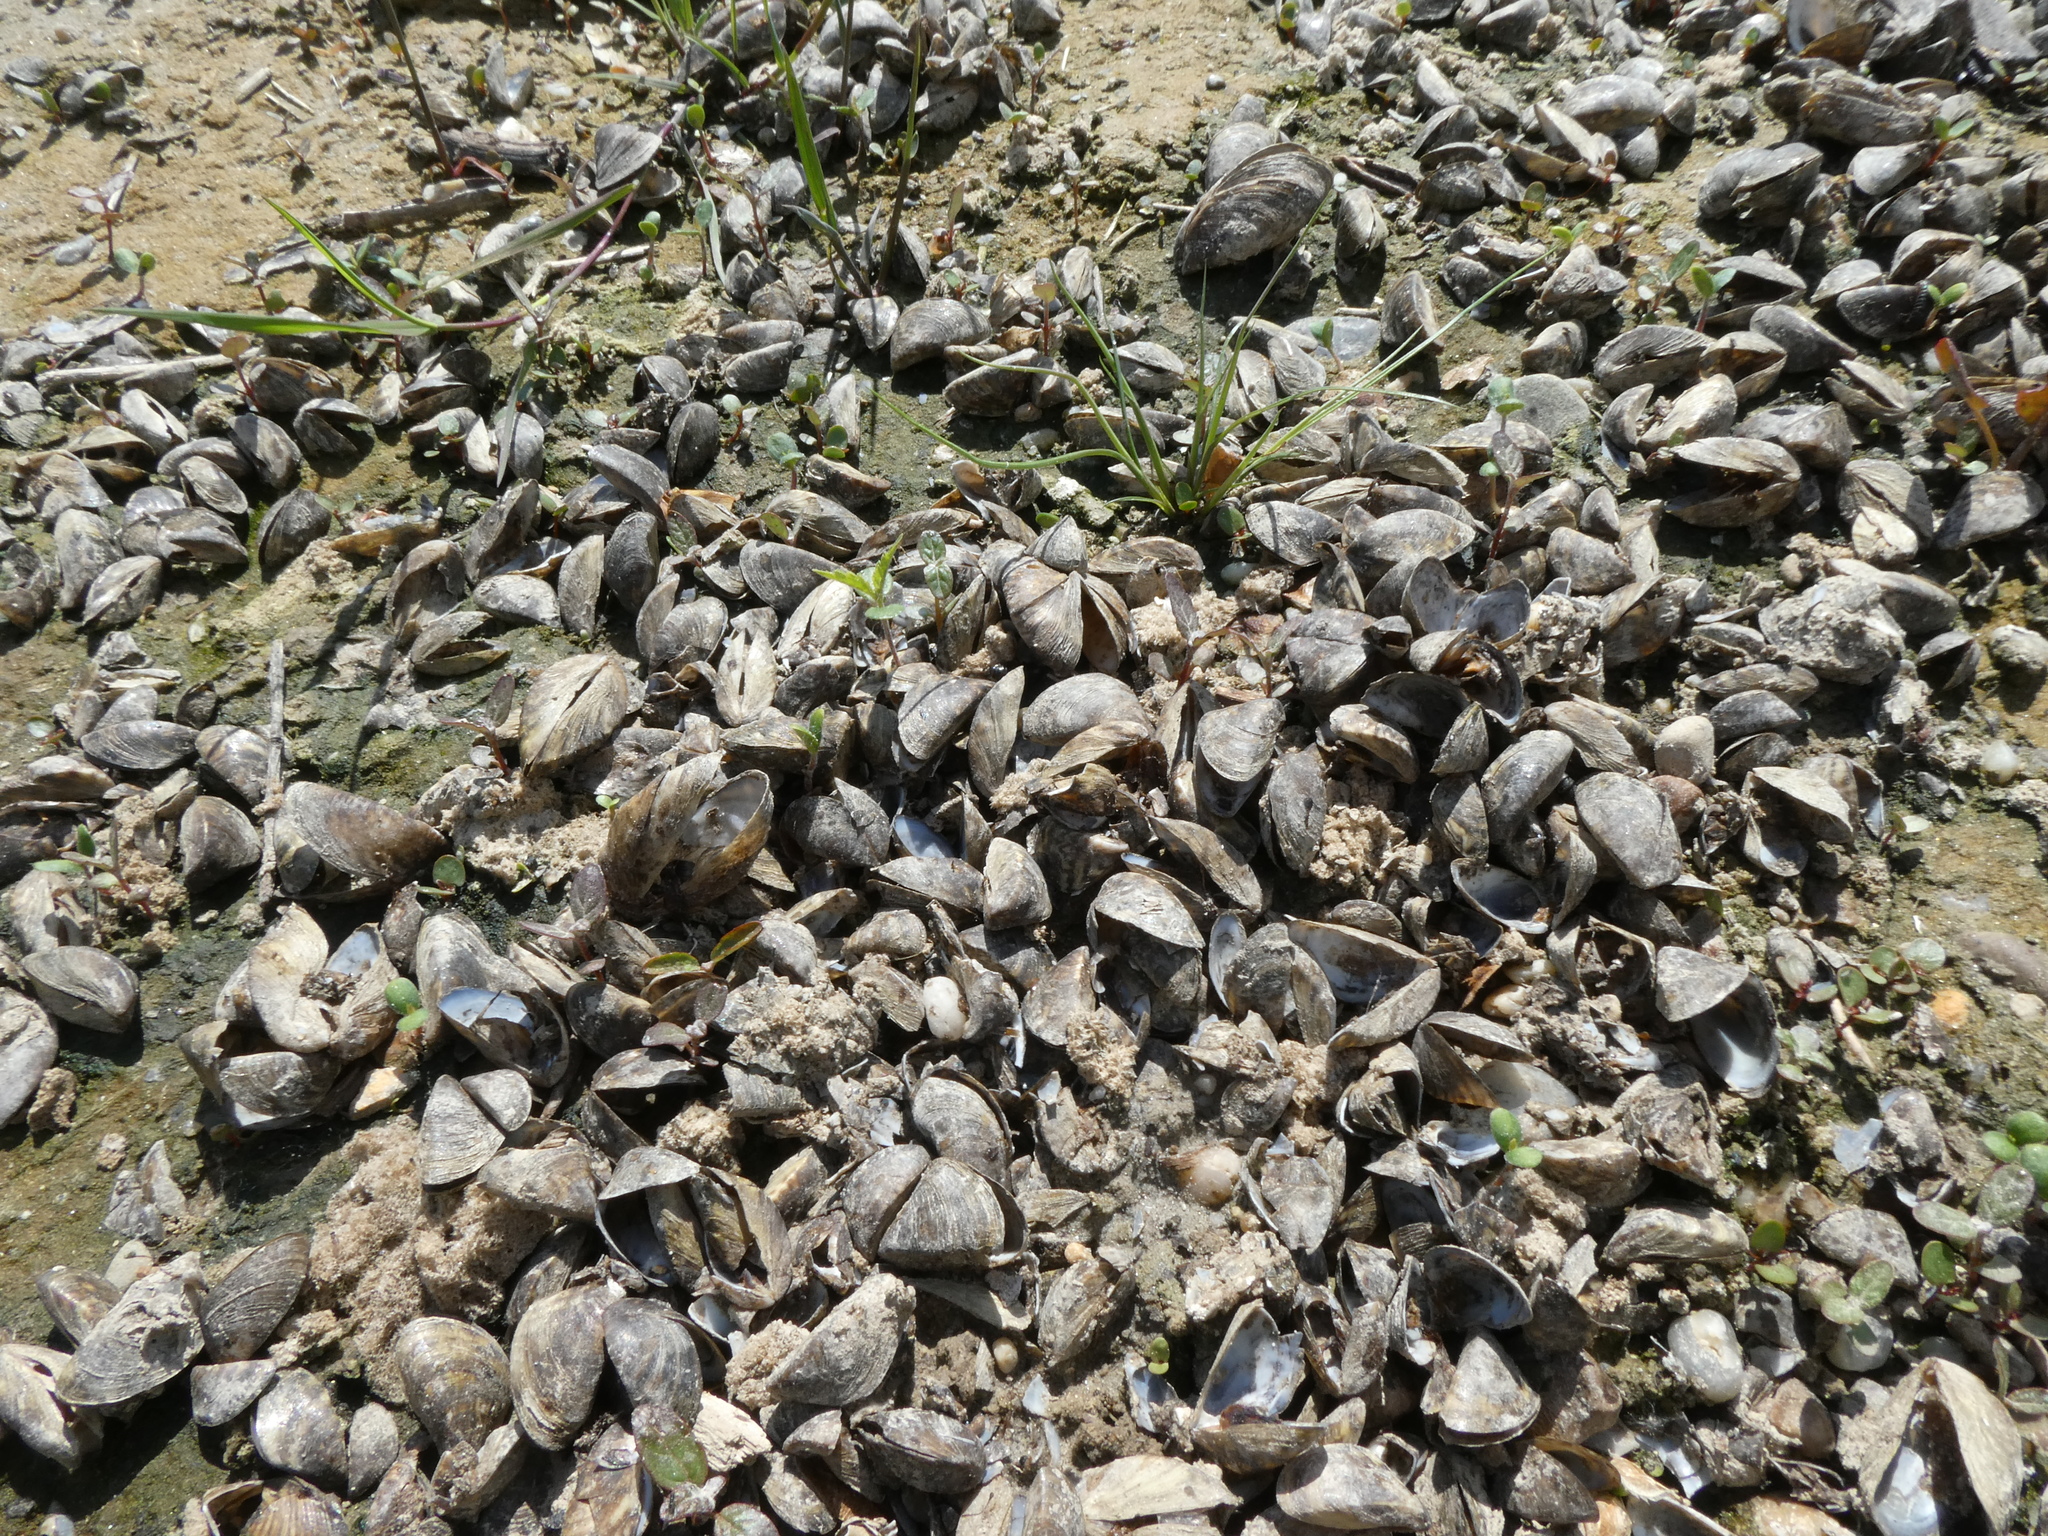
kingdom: Animalia
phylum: Mollusca
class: Bivalvia
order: Myida
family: Dreissenidae
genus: Dreissena
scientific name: Dreissena polymorpha
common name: Zebra mussel
